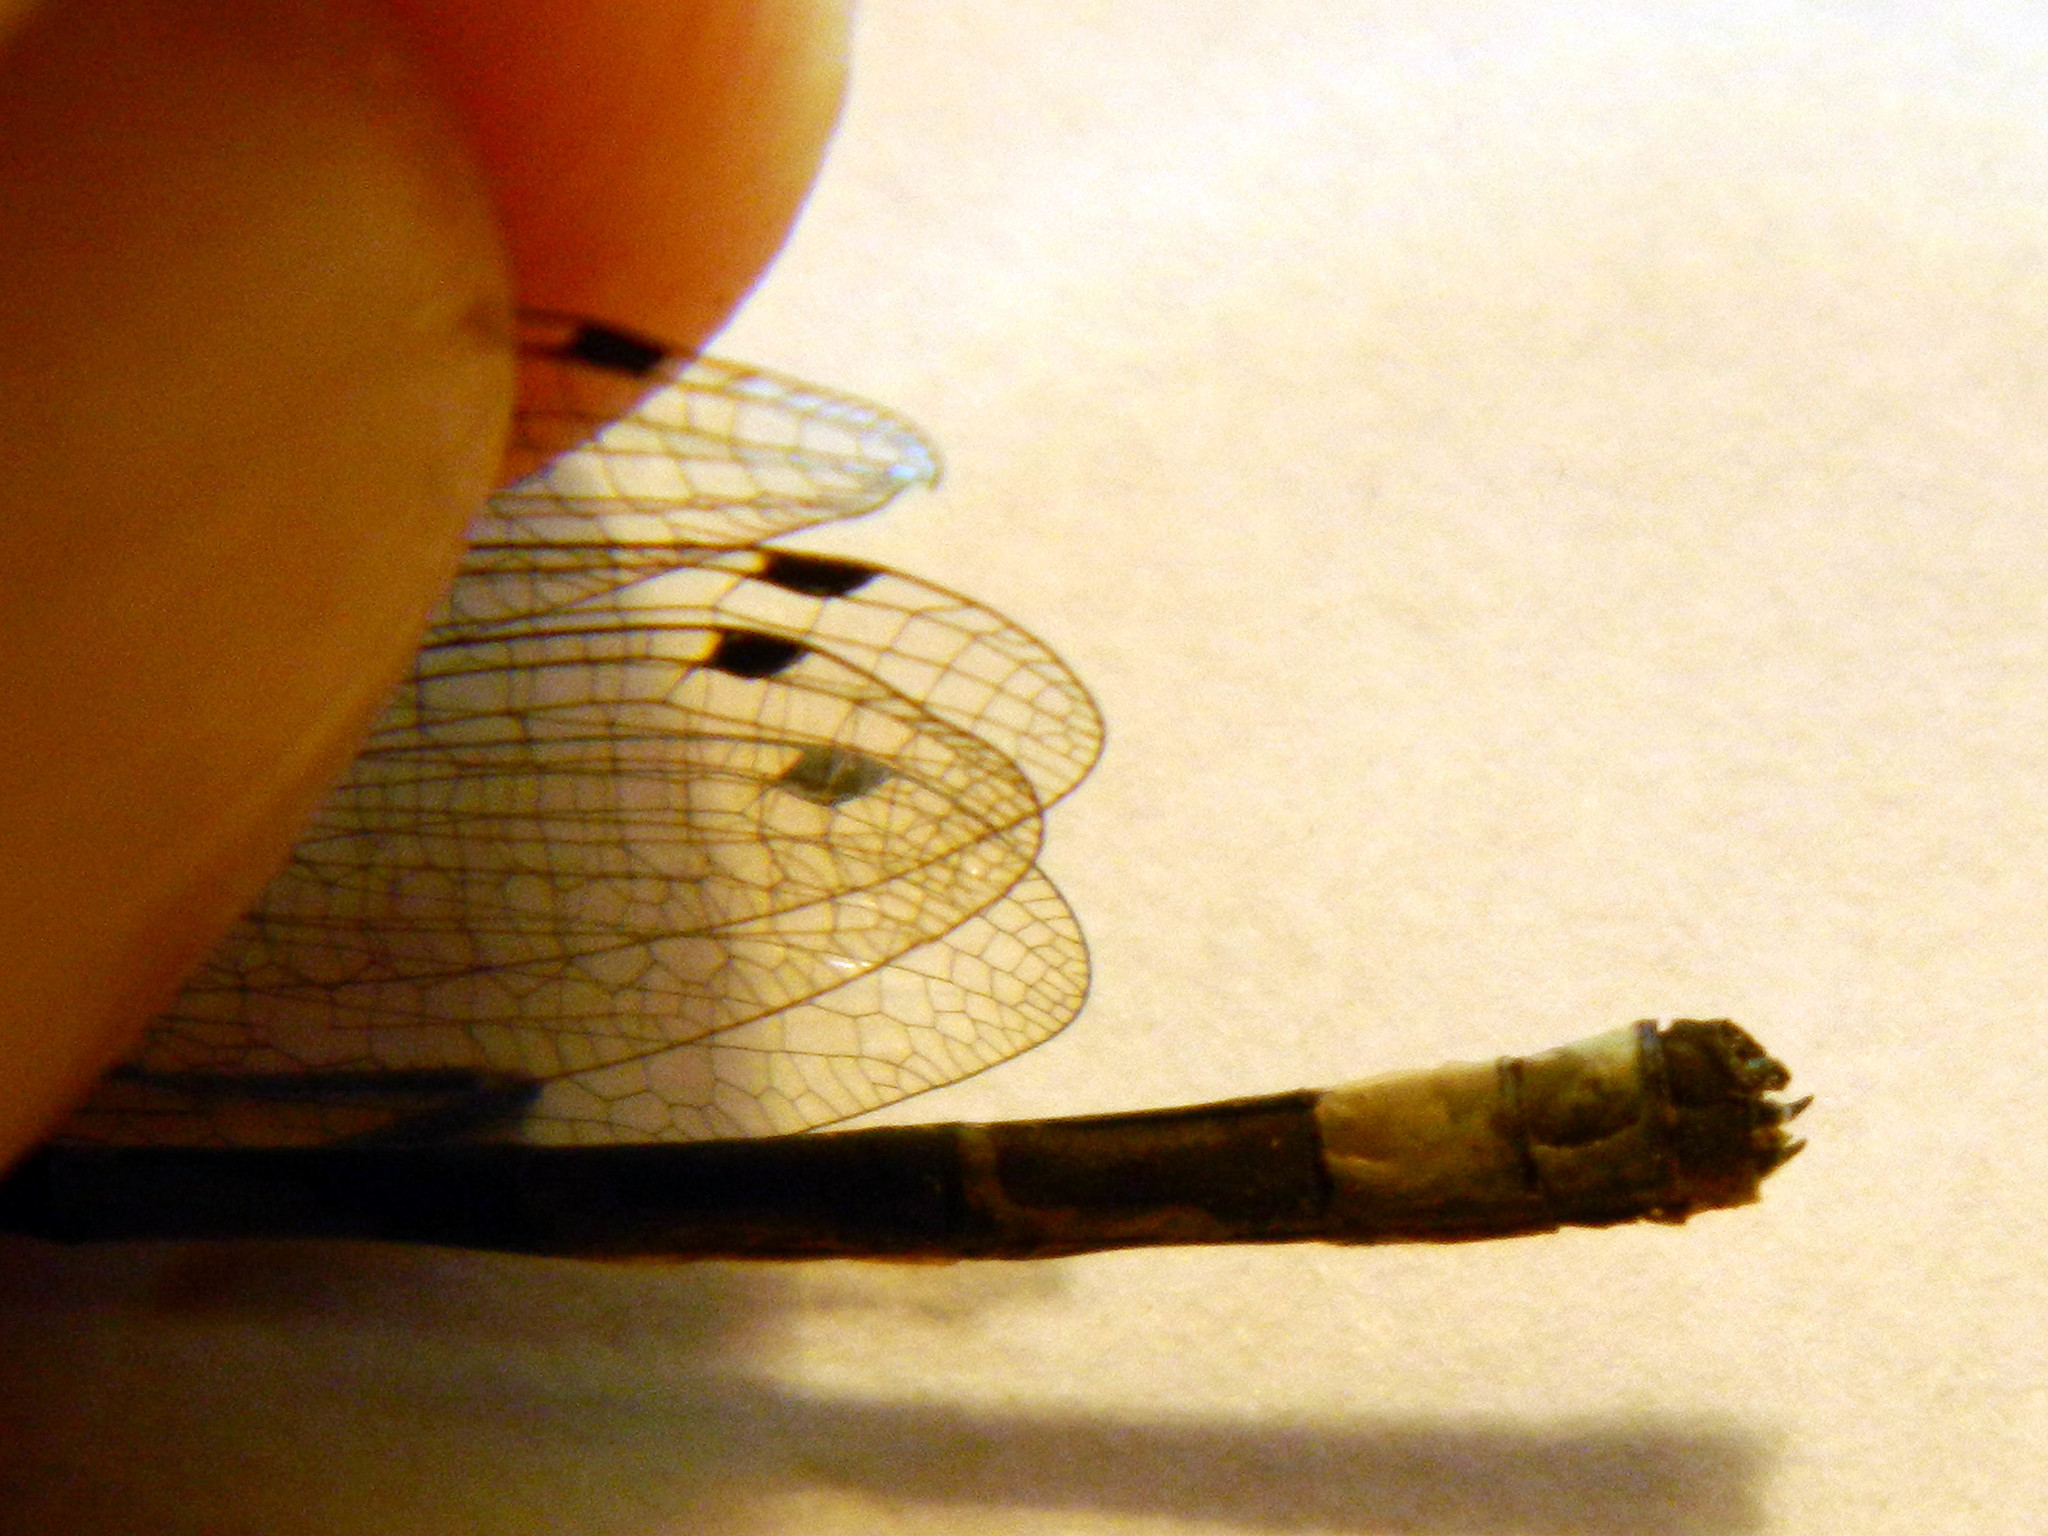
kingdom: Animalia
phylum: Arthropoda
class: Insecta
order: Odonata
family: Coenagrionidae
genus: Enallagma
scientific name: Enallagma boreale
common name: Boreal bluet
